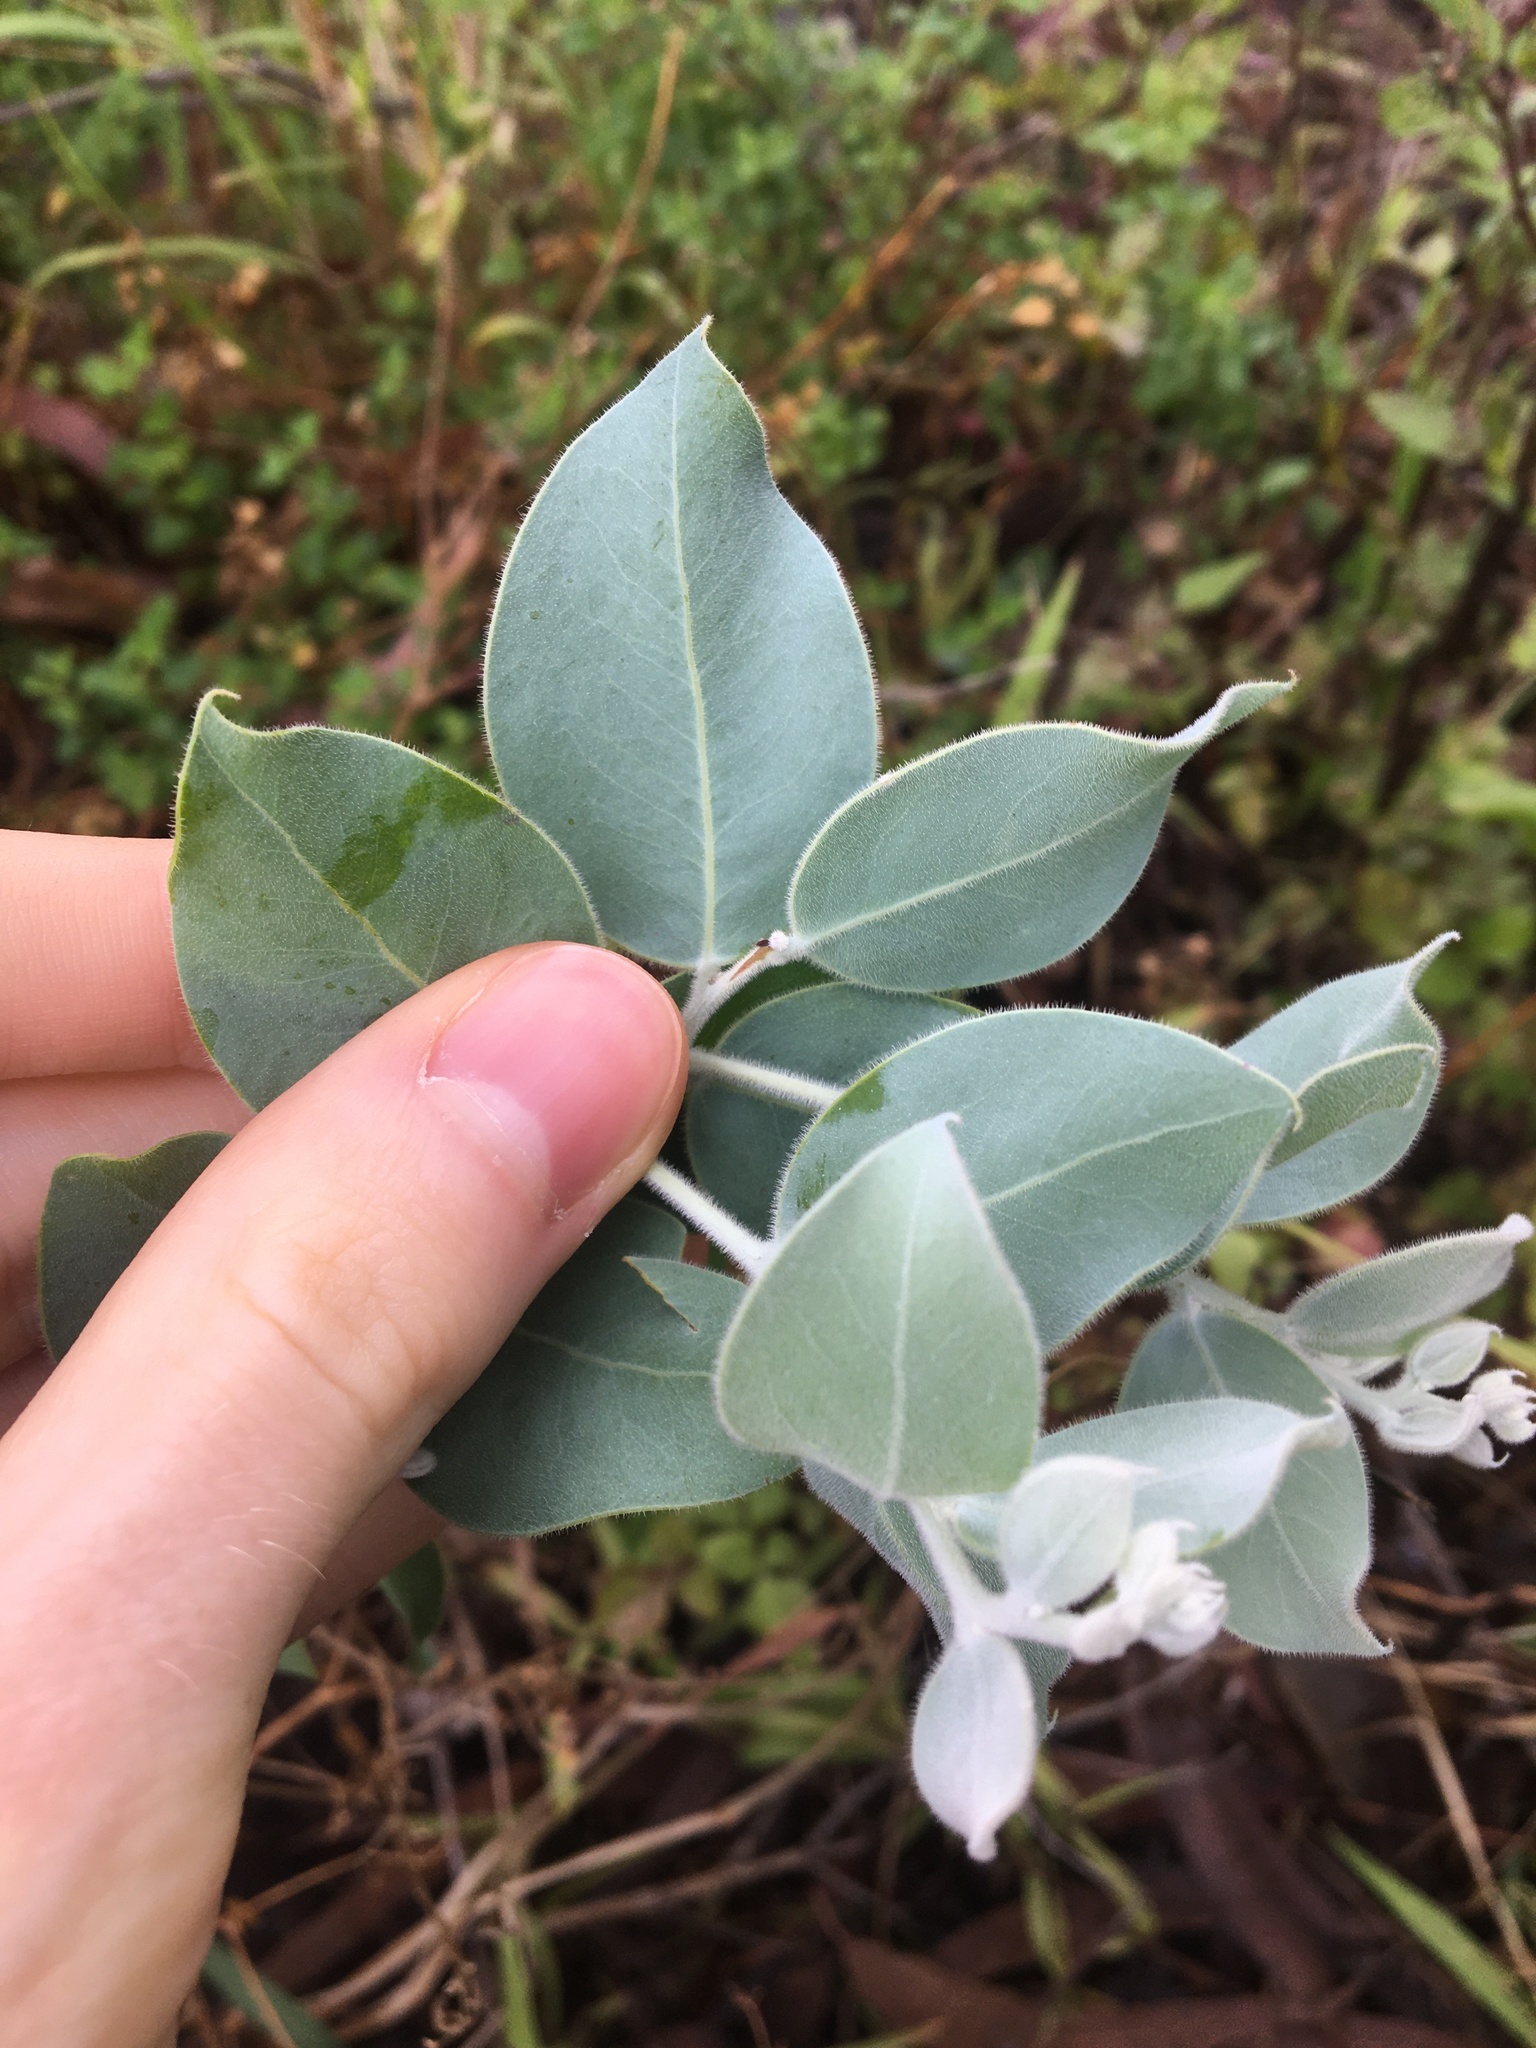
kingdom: Plantae
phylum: Tracheophyta
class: Magnoliopsida
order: Fabales
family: Fabaceae
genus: Acacia
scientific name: Acacia podalyriifolia
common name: Pearl wattle
